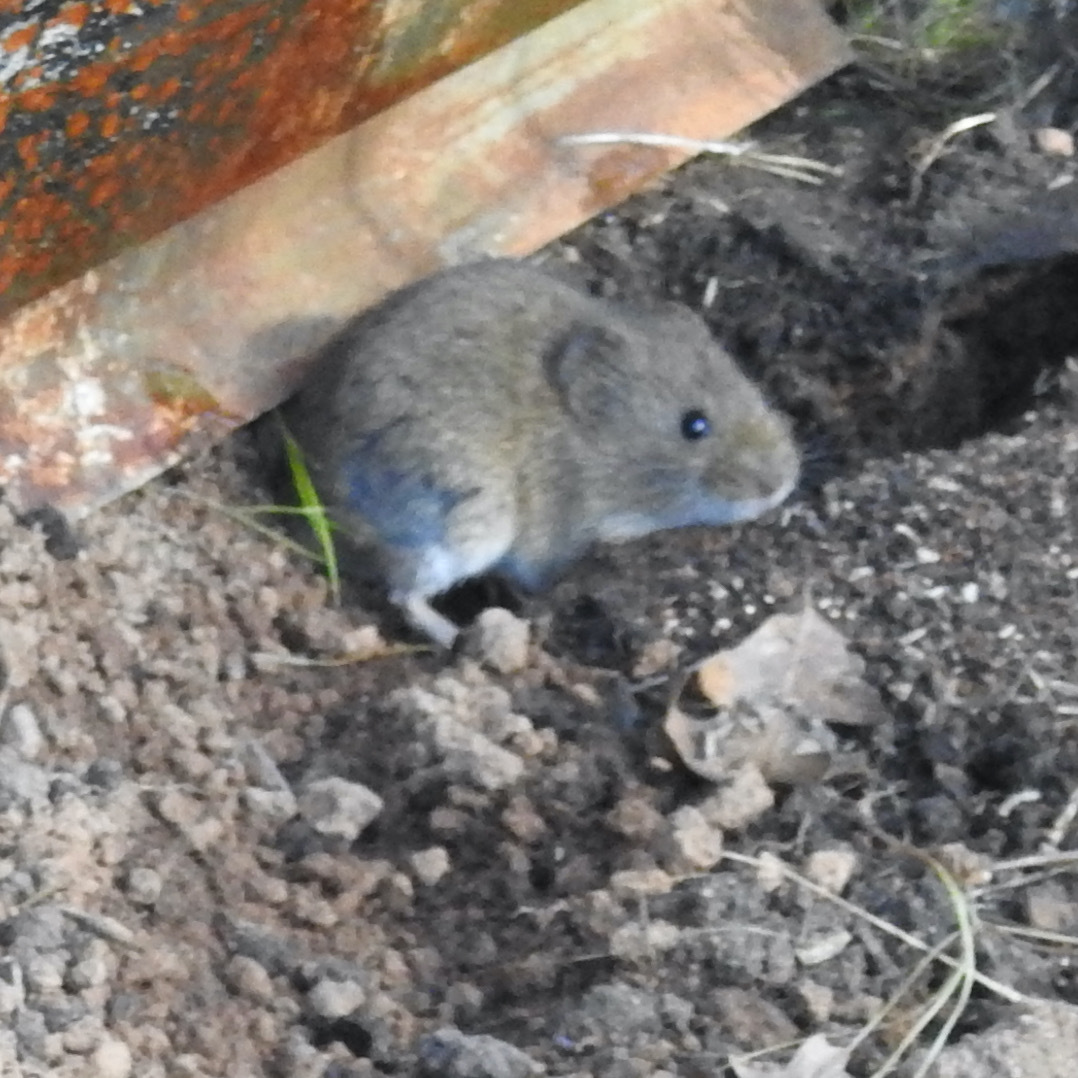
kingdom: Animalia
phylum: Chordata
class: Mammalia
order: Rodentia
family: Cricetidae
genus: Microtus
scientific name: Microtus californicus
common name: California vole
